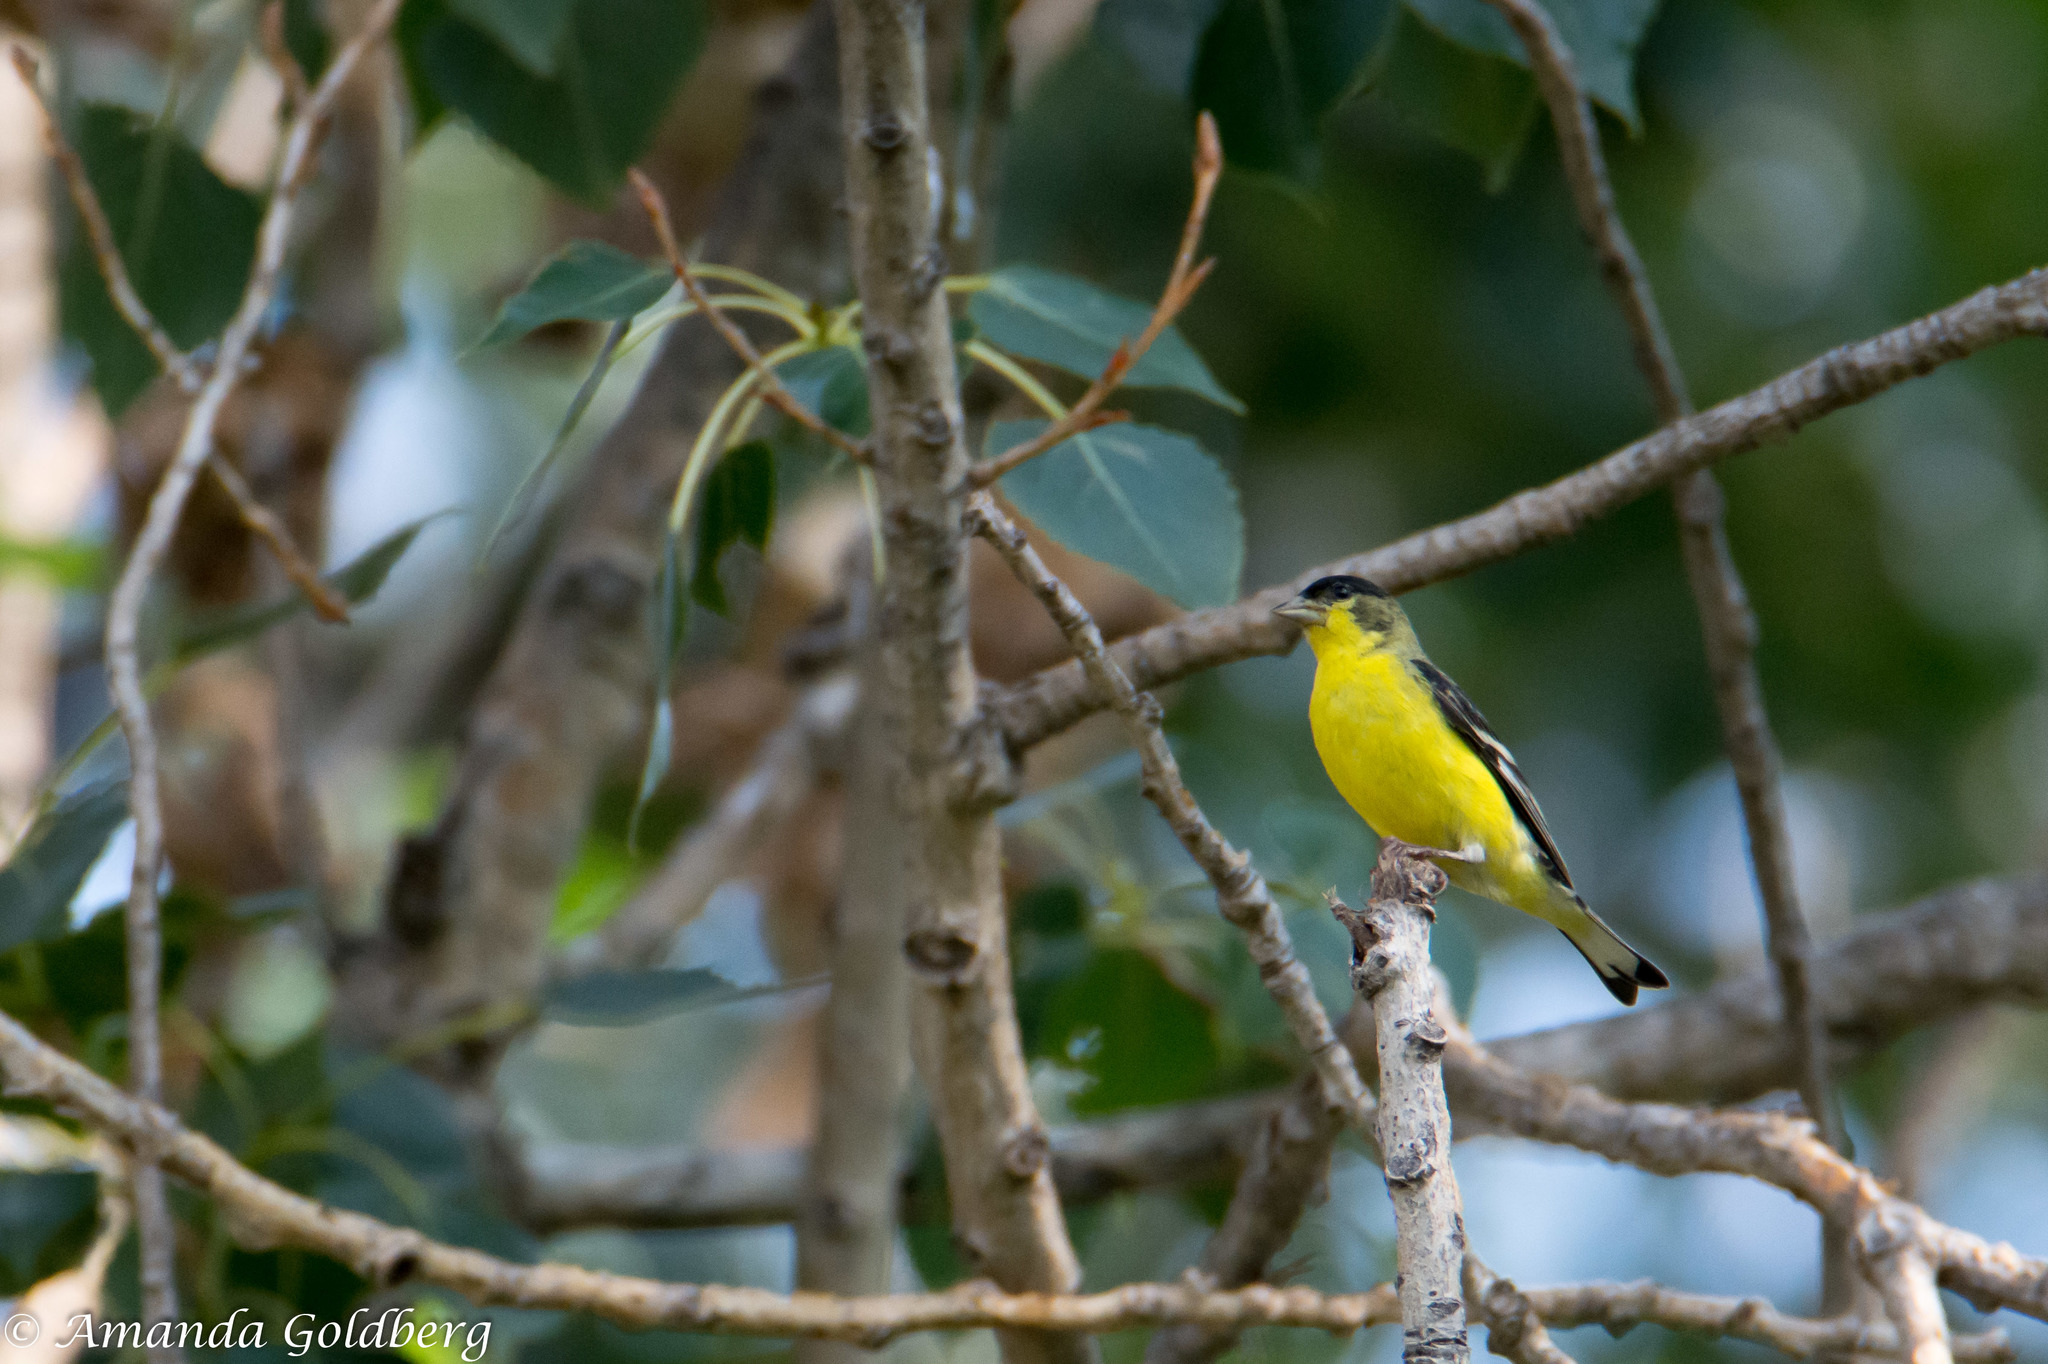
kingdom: Animalia
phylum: Chordata
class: Aves
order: Passeriformes
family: Fringillidae
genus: Spinus
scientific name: Spinus psaltria
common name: Lesser goldfinch
